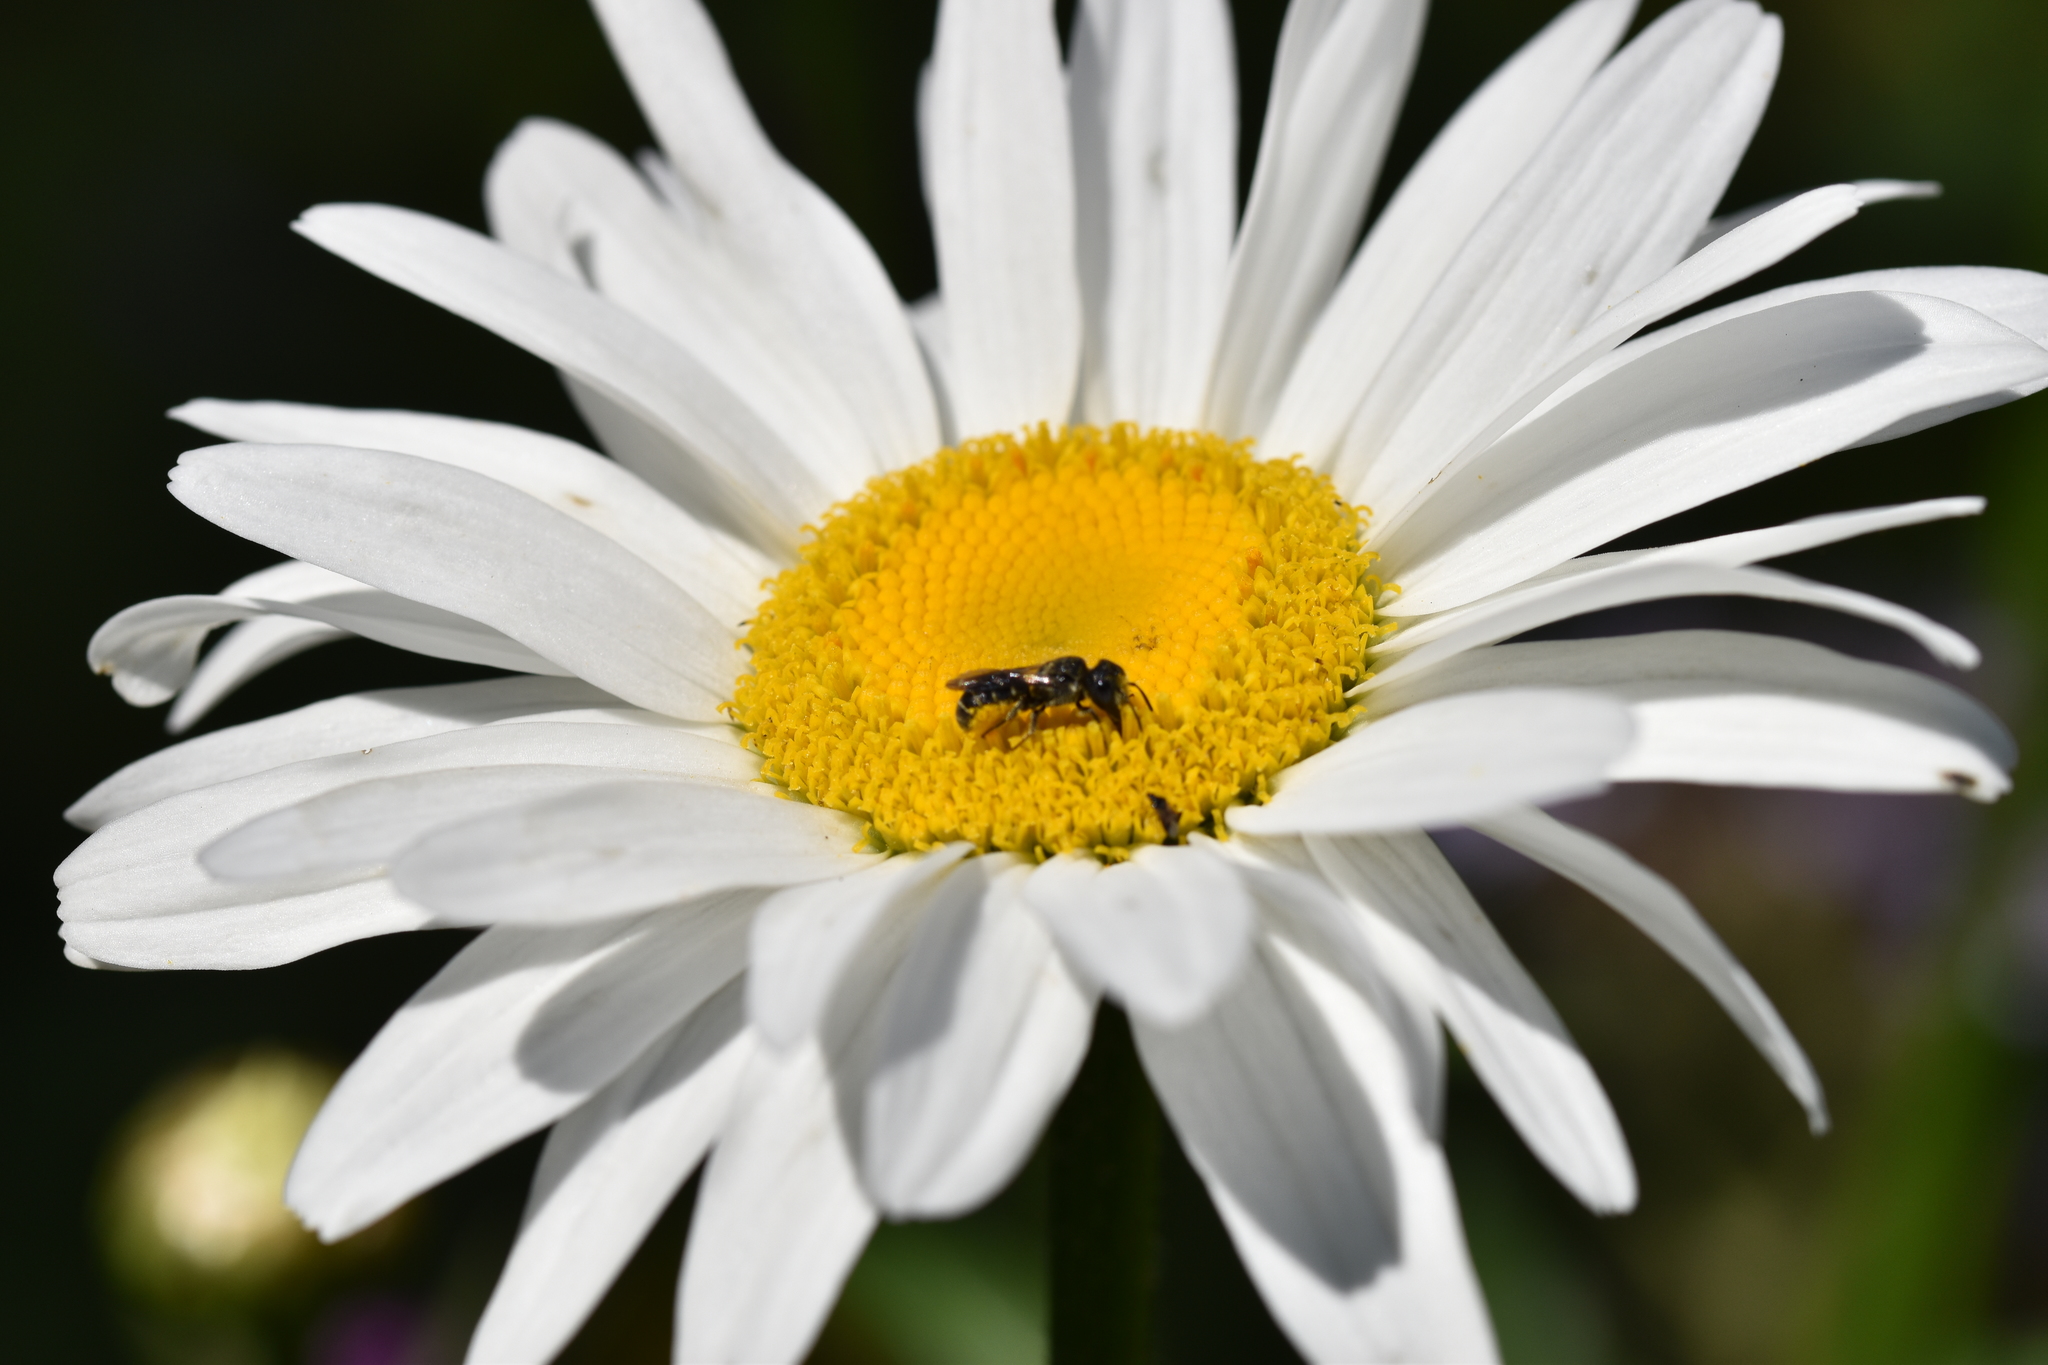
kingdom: Animalia
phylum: Arthropoda
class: Insecta
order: Hymenoptera
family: Megachilidae
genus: Heriades
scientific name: Heriades
